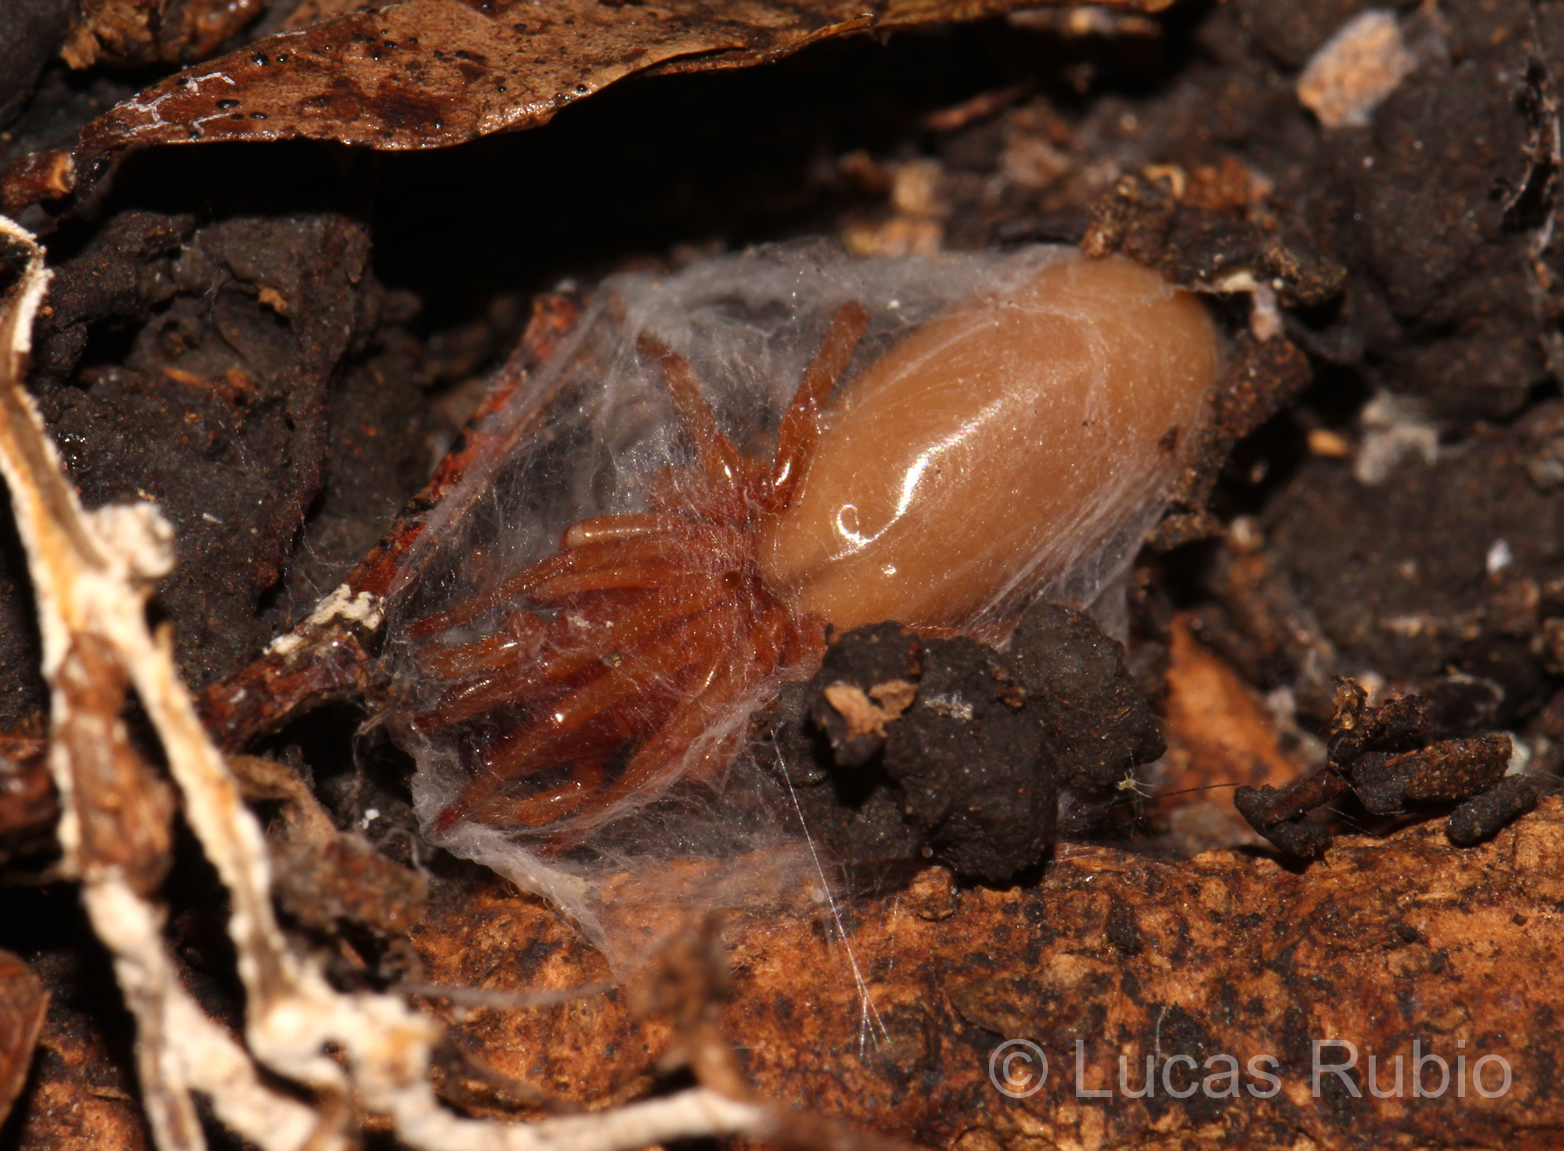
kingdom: Animalia
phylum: Arthropoda
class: Arachnida
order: Araneae
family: Dysderidae
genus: Dysdera
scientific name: Dysdera crocata
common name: Woodlouse spider
